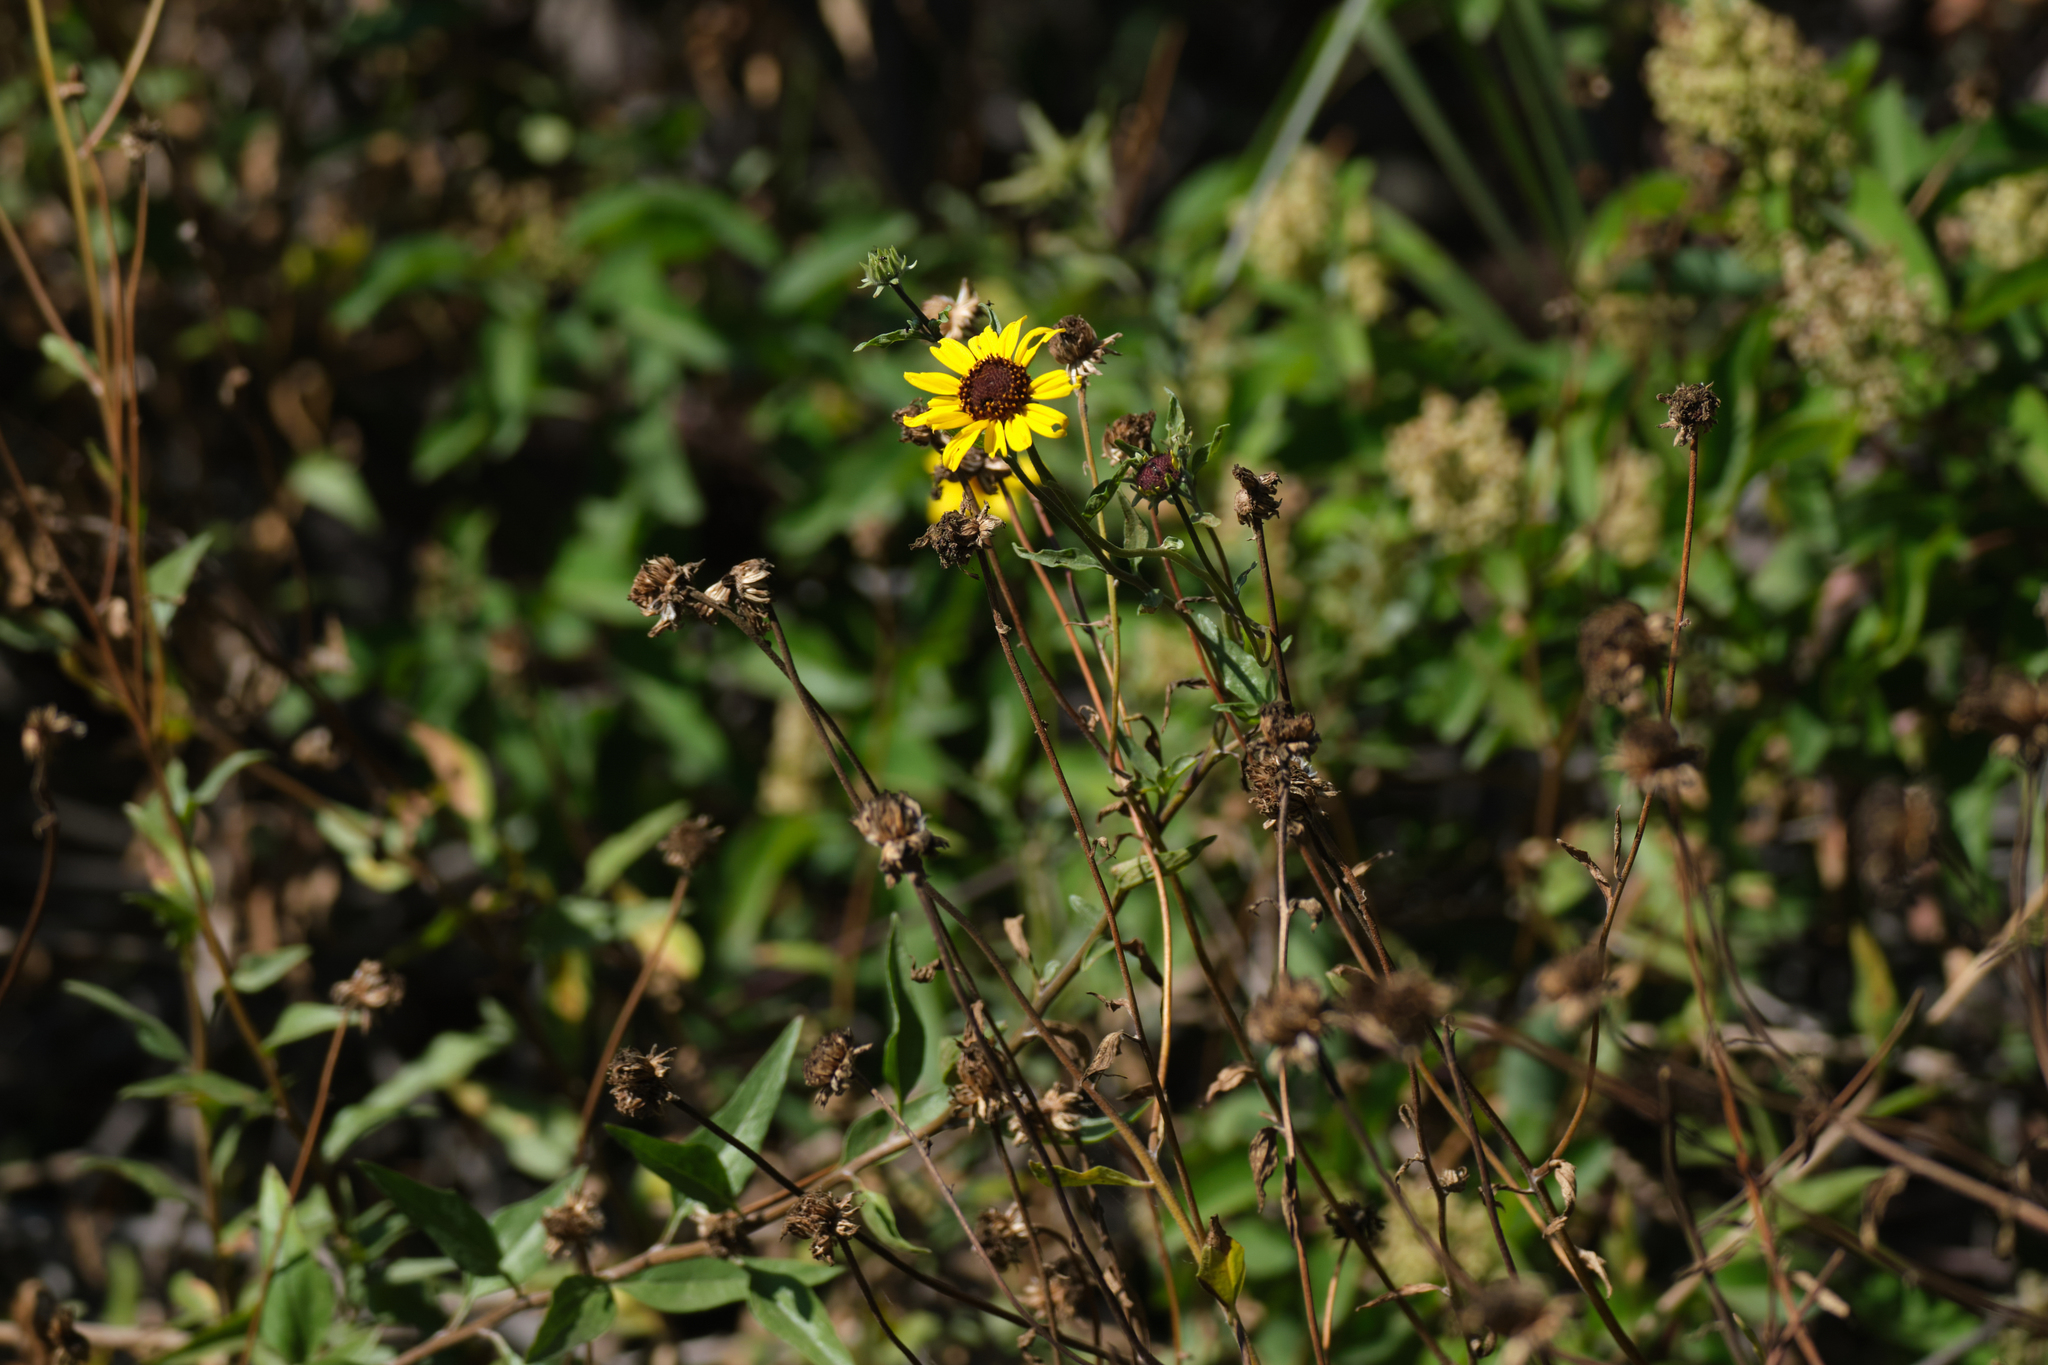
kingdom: Plantae
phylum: Tracheophyta
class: Magnoliopsida
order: Asterales
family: Asteraceae
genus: Encelia
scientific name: Encelia californica
